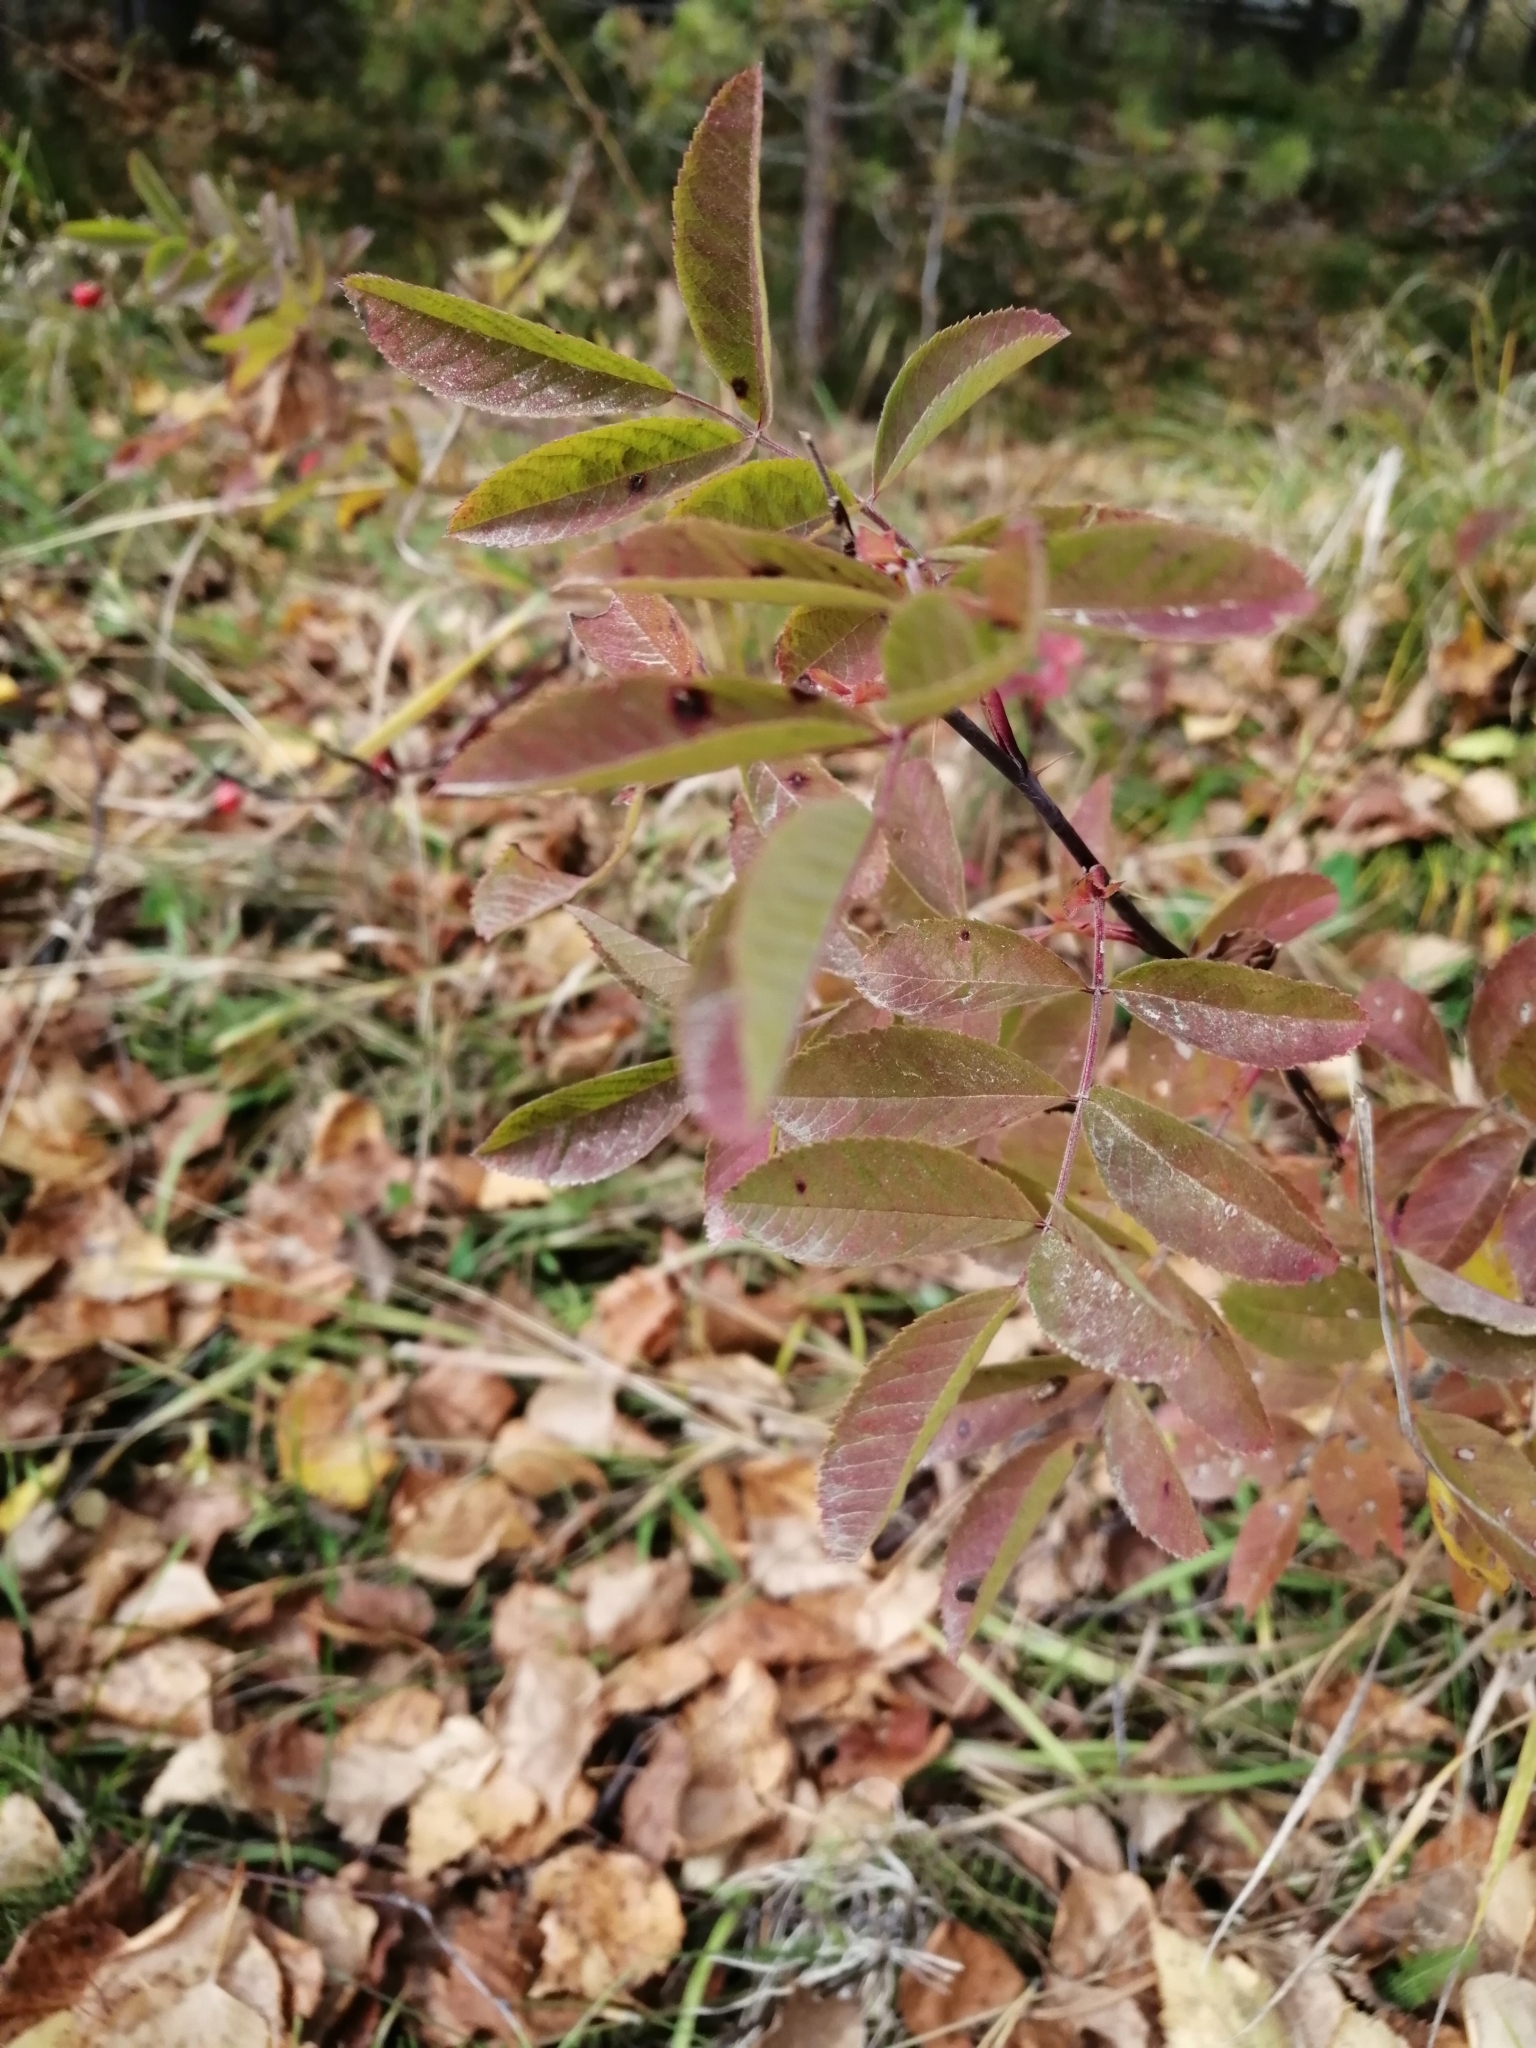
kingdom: Plantae
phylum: Tracheophyta
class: Magnoliopsida
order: Rosales
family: Rosaceae
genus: Rosa
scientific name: Rosa majalis
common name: Cinnamon rose
